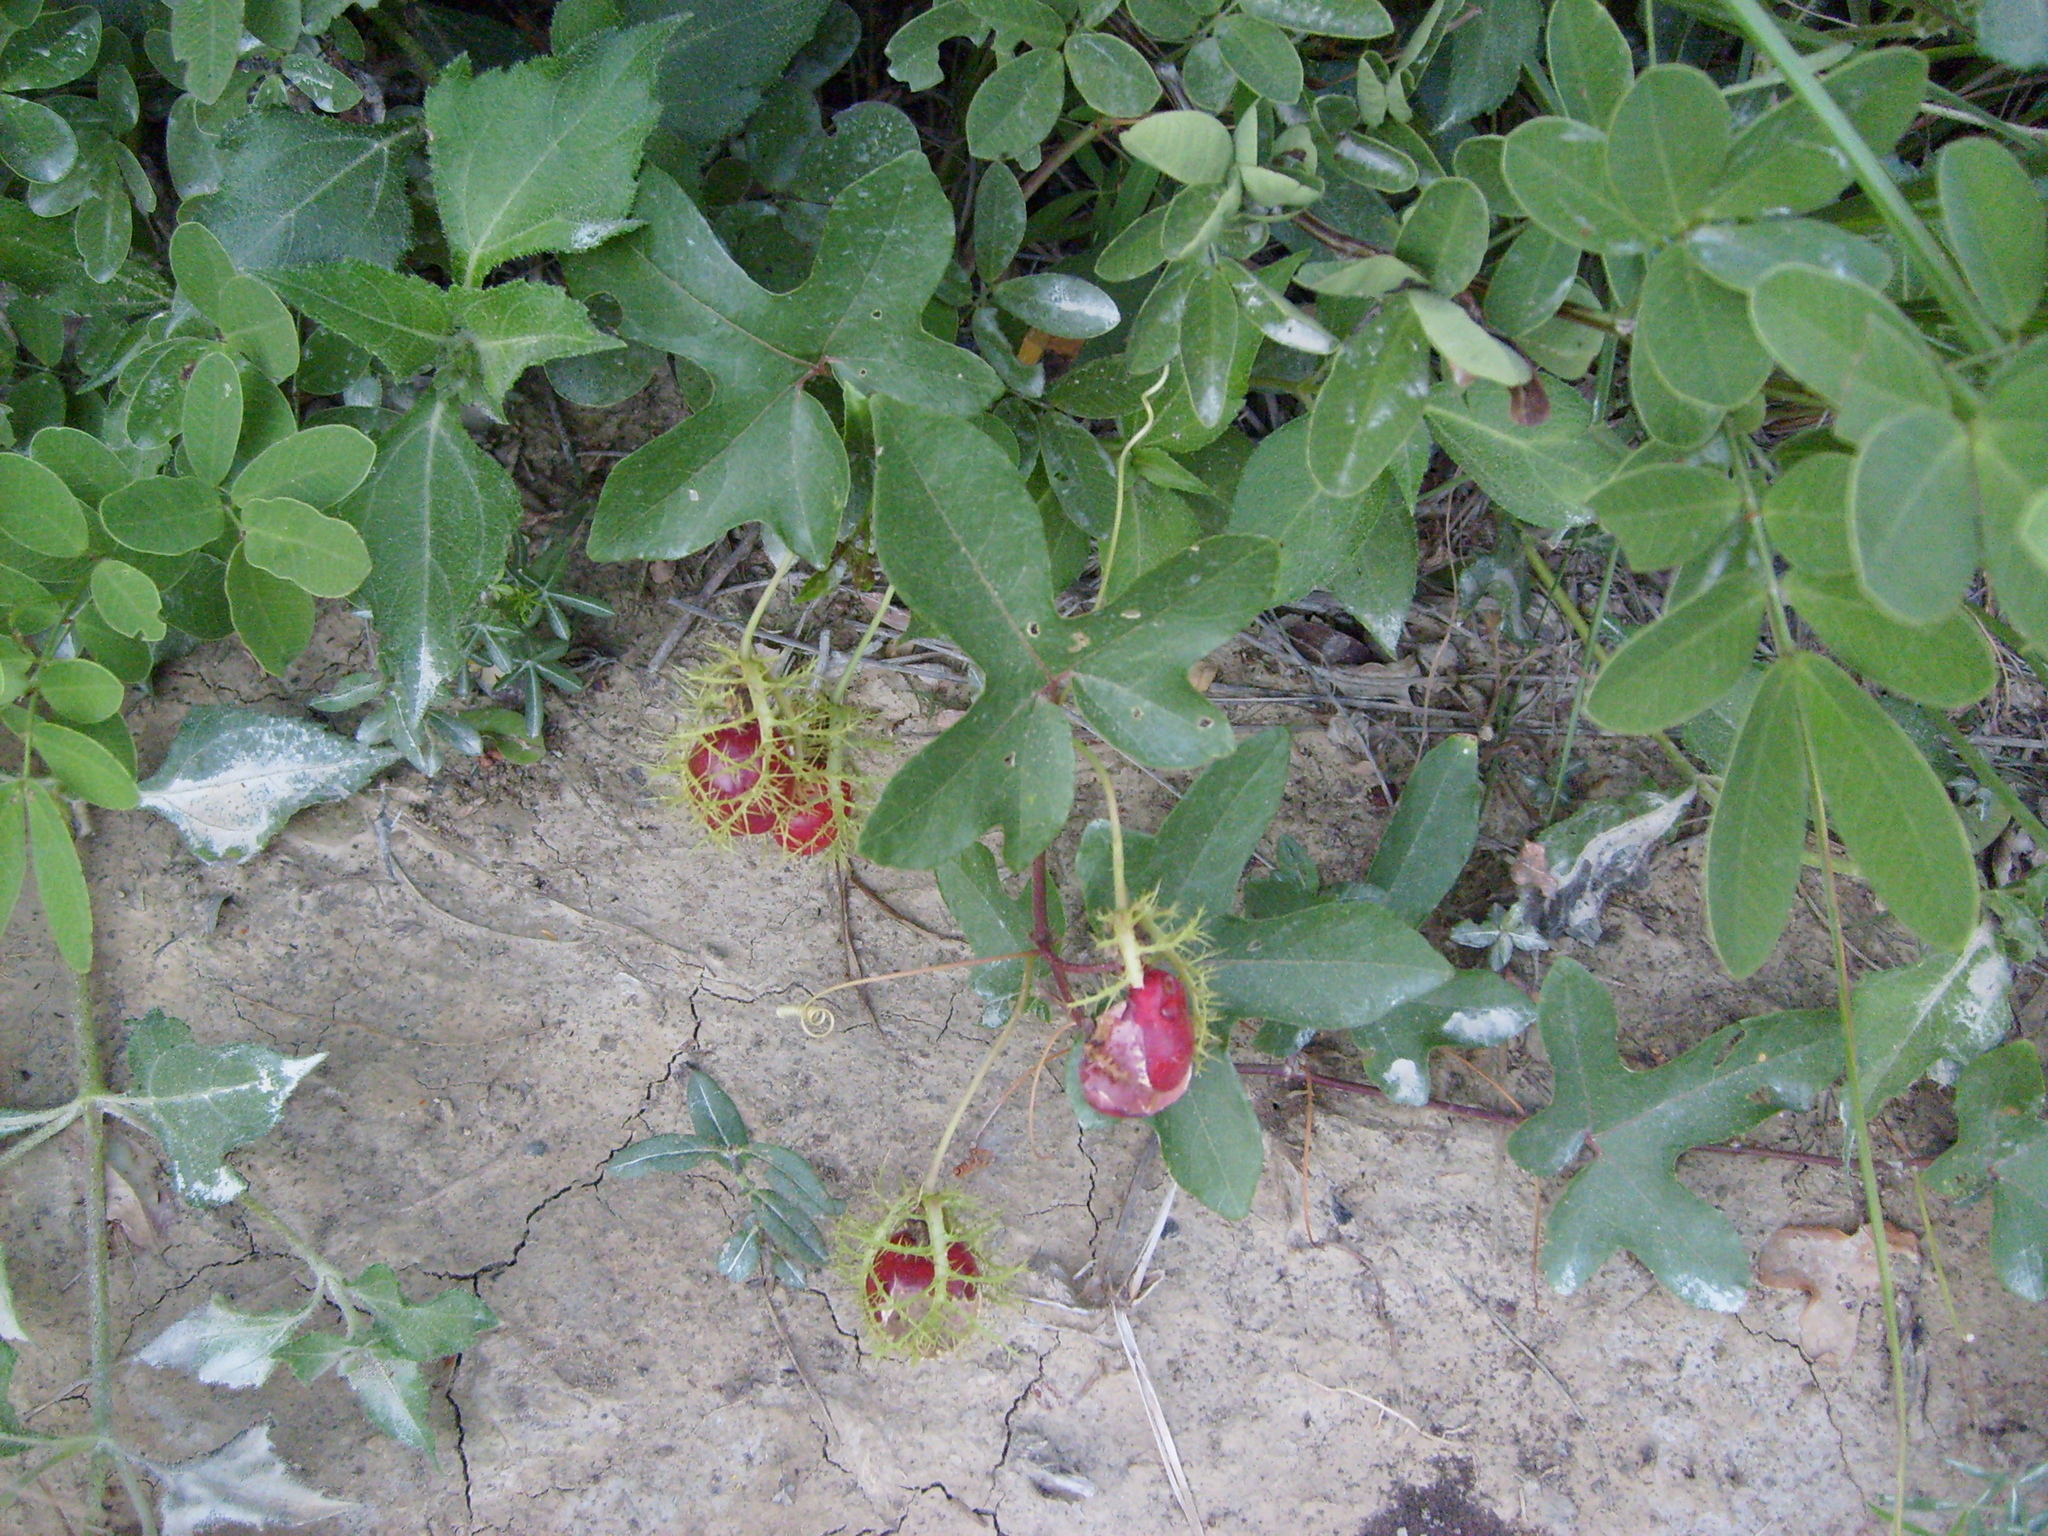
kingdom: Plantae
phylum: Tracheophyta
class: Magnoliopsida
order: Malpighiales
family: Passifloraceae
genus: Passiflora
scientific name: Passiflora ciliata
